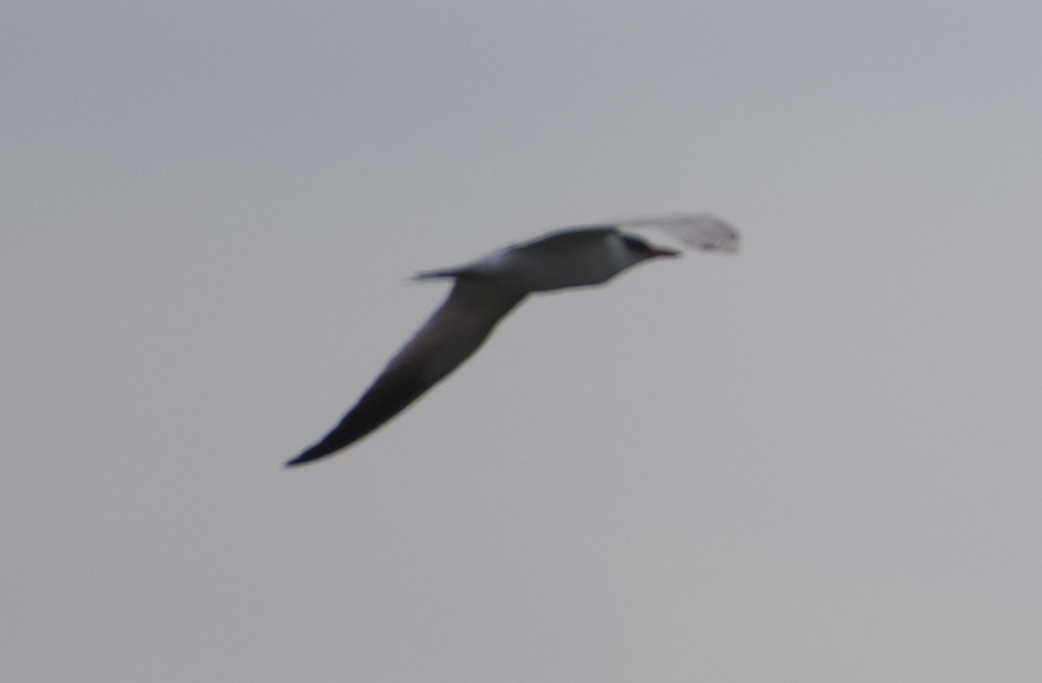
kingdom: Animalia
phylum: Chordata
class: Aves
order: Charadriiformes
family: Laridae
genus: Hydroprogne
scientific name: Hydroprogne caspia
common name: Caspian tern
